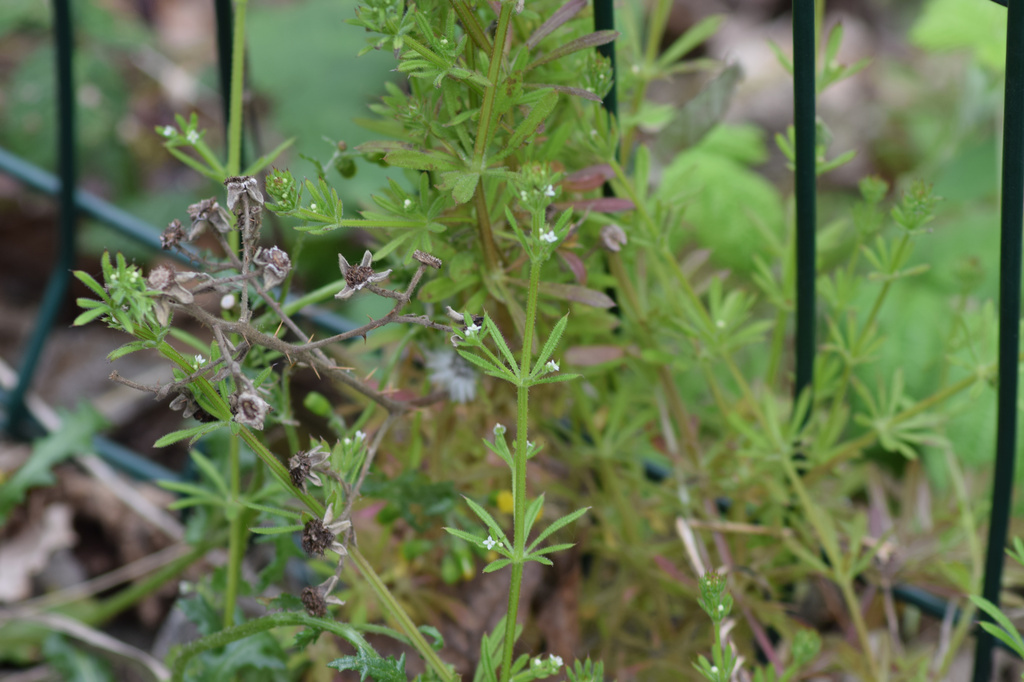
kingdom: Plantae
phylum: Tracheophyta
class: Magnoliopsida
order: Gentianales
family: Rubiaceae
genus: Galium
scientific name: Galium aparine
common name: Cleavers
